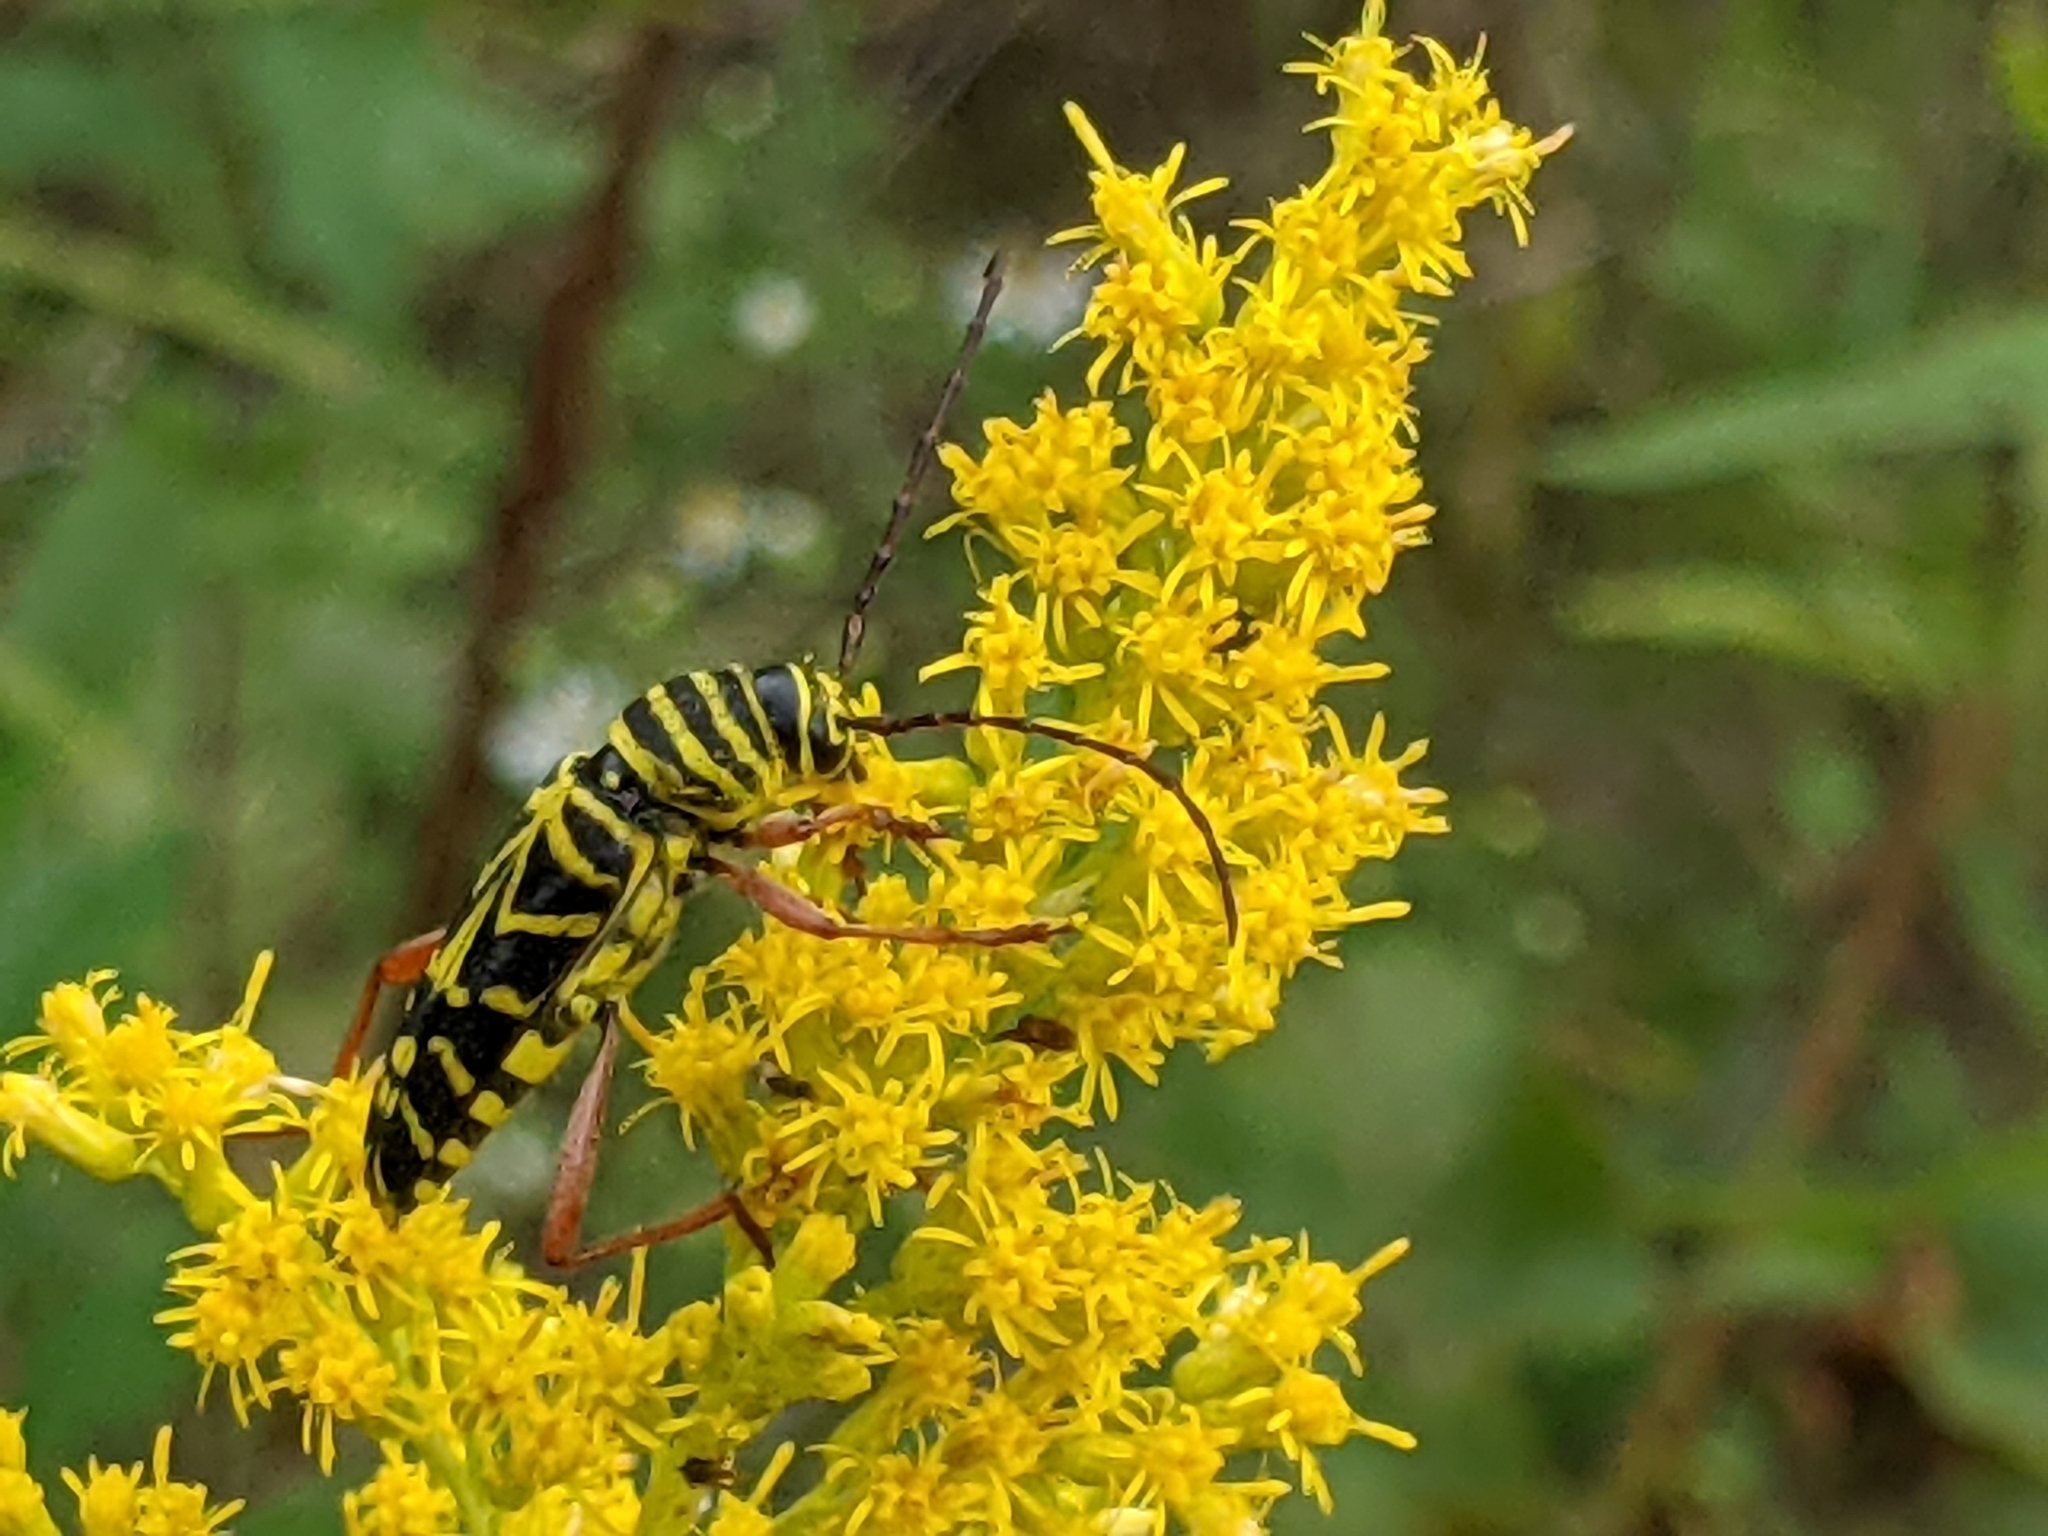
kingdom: Animalia
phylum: Arthropoda
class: Insecta
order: Coleoptera
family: Cerambycidae
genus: Megacyllene
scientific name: Megacyllene robiniae
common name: Locust borer
